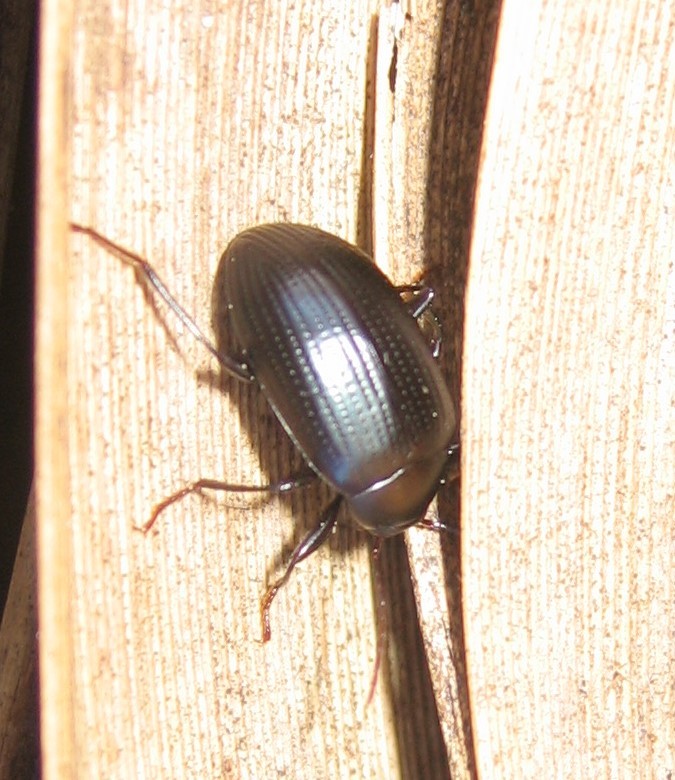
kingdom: Animalia
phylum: Arthropoda
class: Insecta
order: Coleoptera
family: Tenebrionidae
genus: Amarygmus
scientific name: Amarygmus
